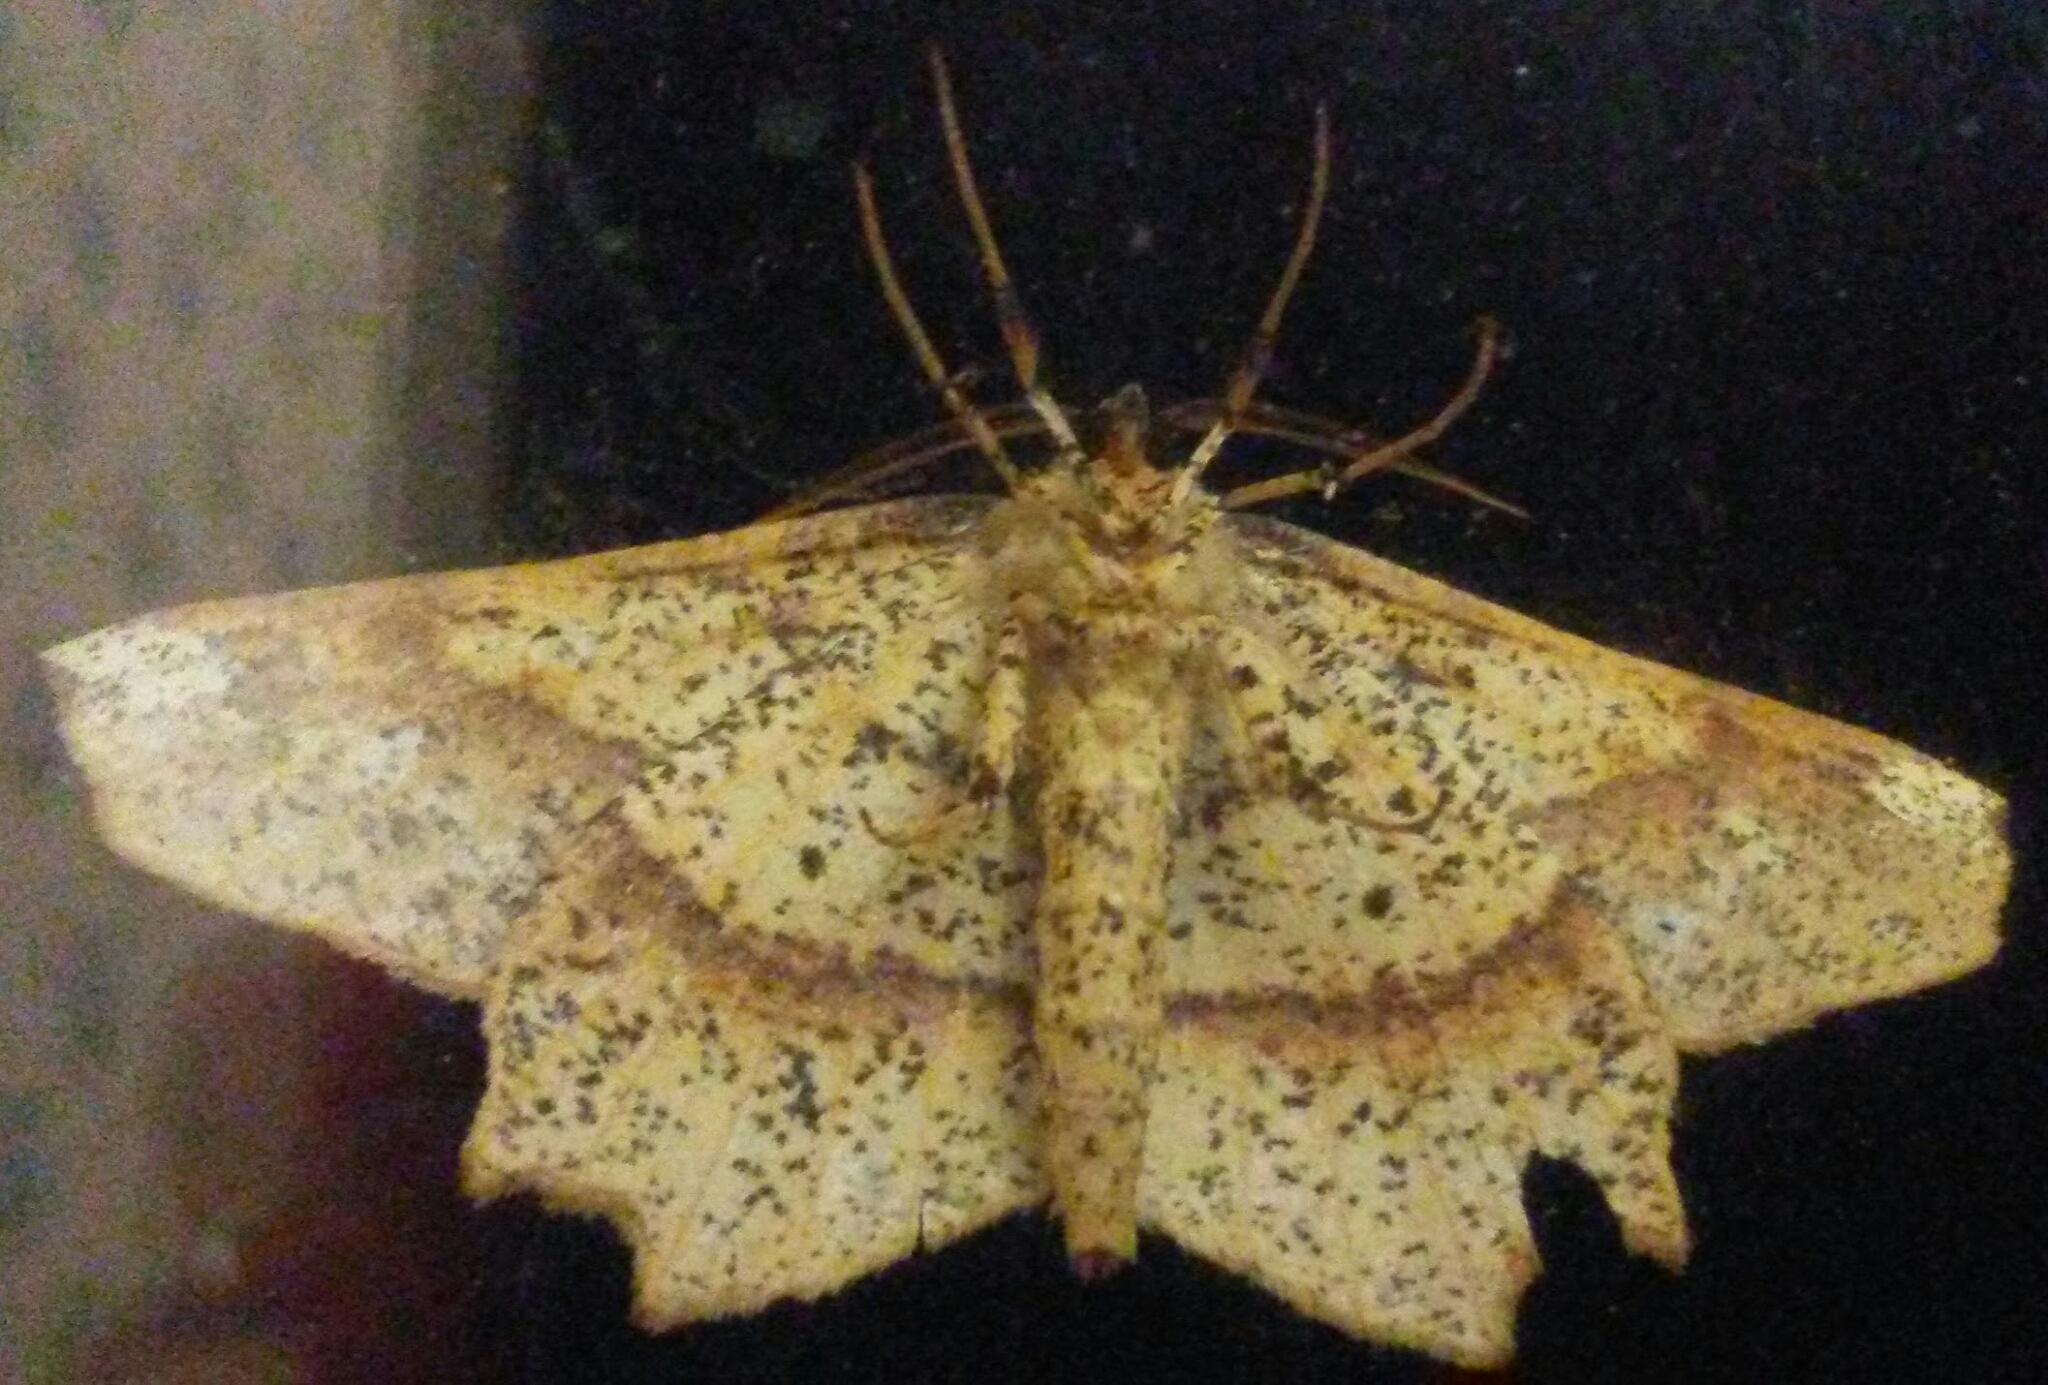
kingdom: Animalia
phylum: Arthropoda
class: Insecta
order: Lepidoptera
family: Geometridae
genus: Euchlaena
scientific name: Euchlaena amoenaria
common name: Deep yellow euchlaena
